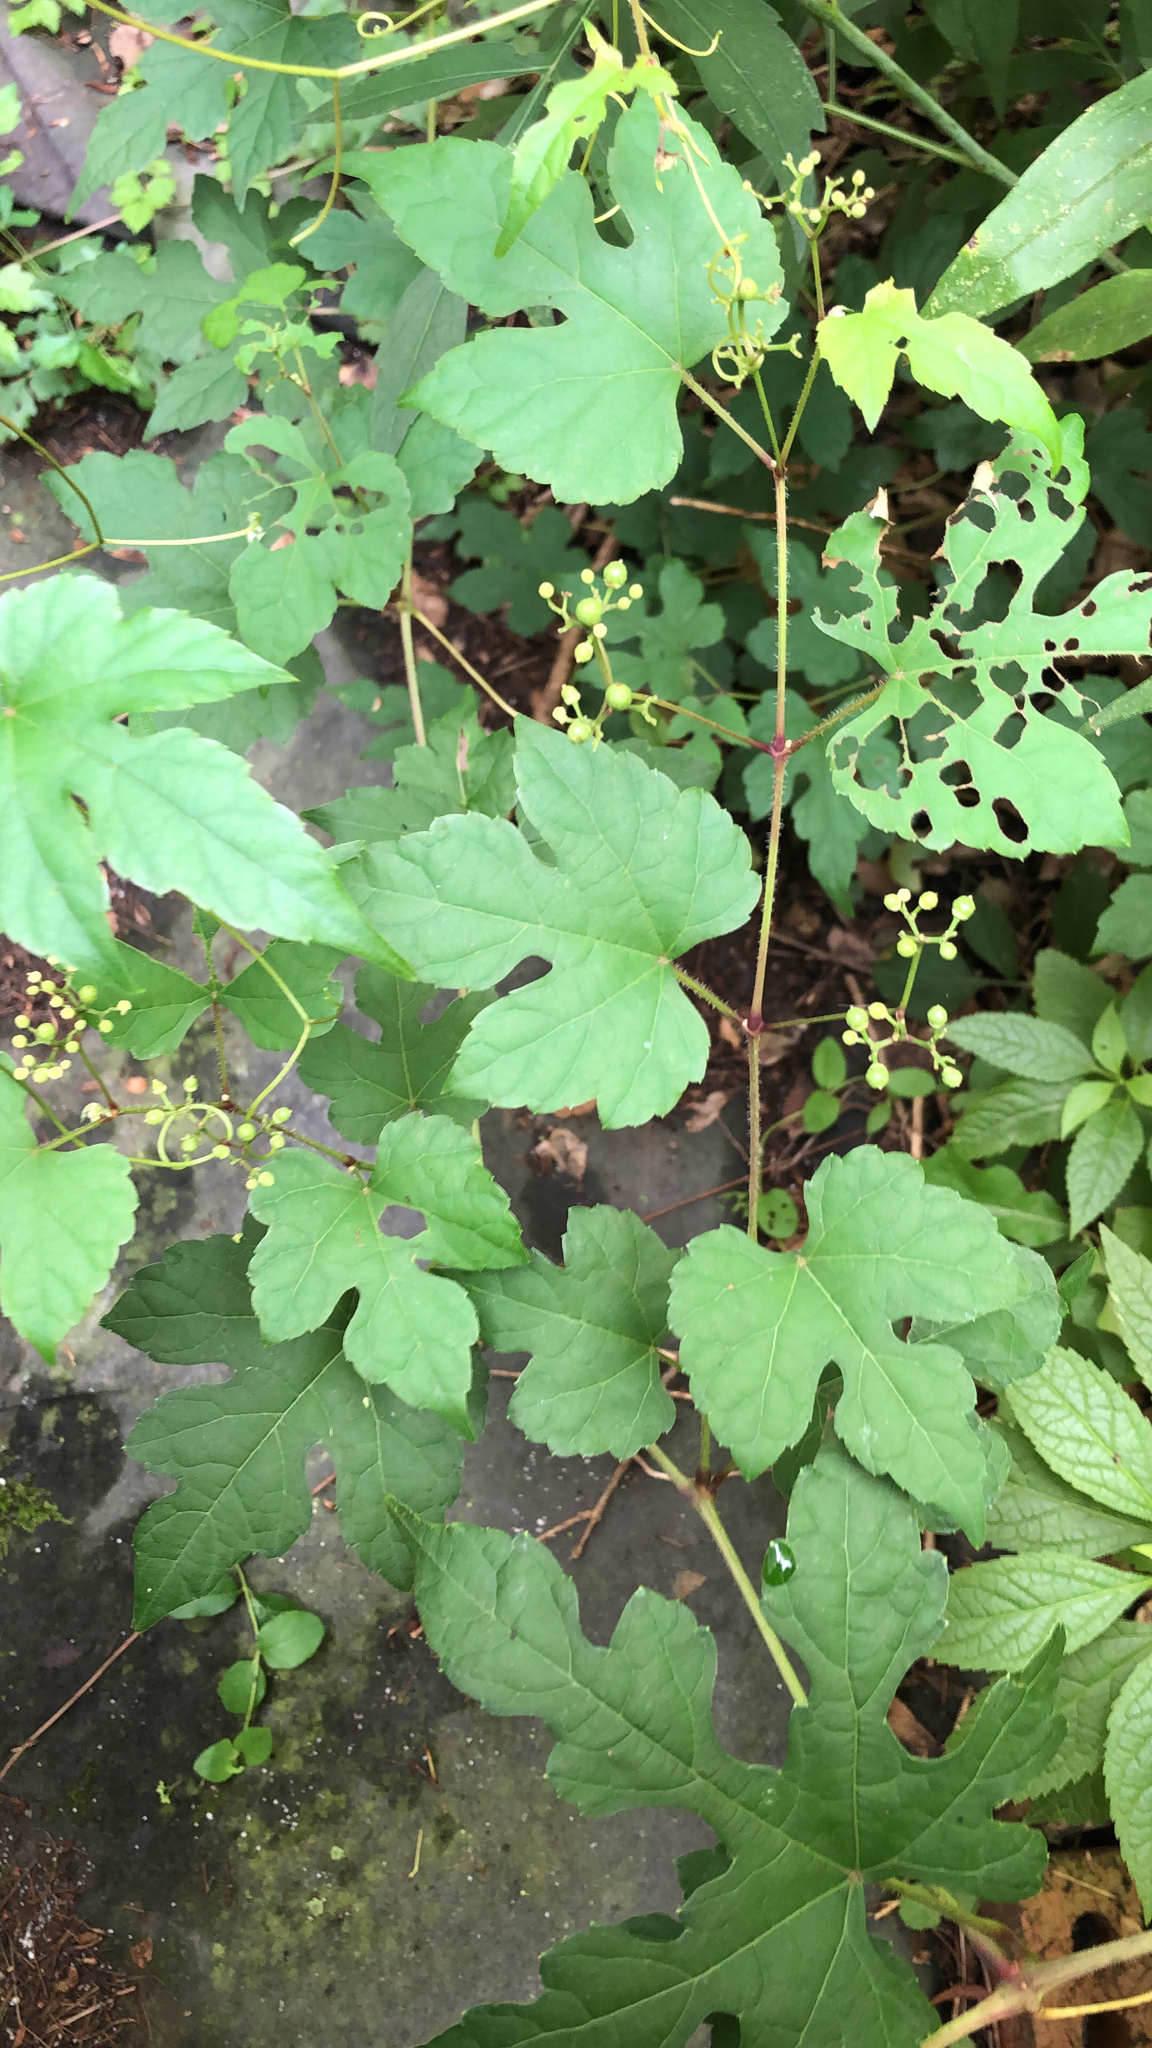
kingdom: Plantae
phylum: Tracheophyta
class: Magnoliopsida
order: Vitales
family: Vitaceae
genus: Ampelopsis
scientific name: Ampelopsis glandulosa
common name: Amur peppervine
